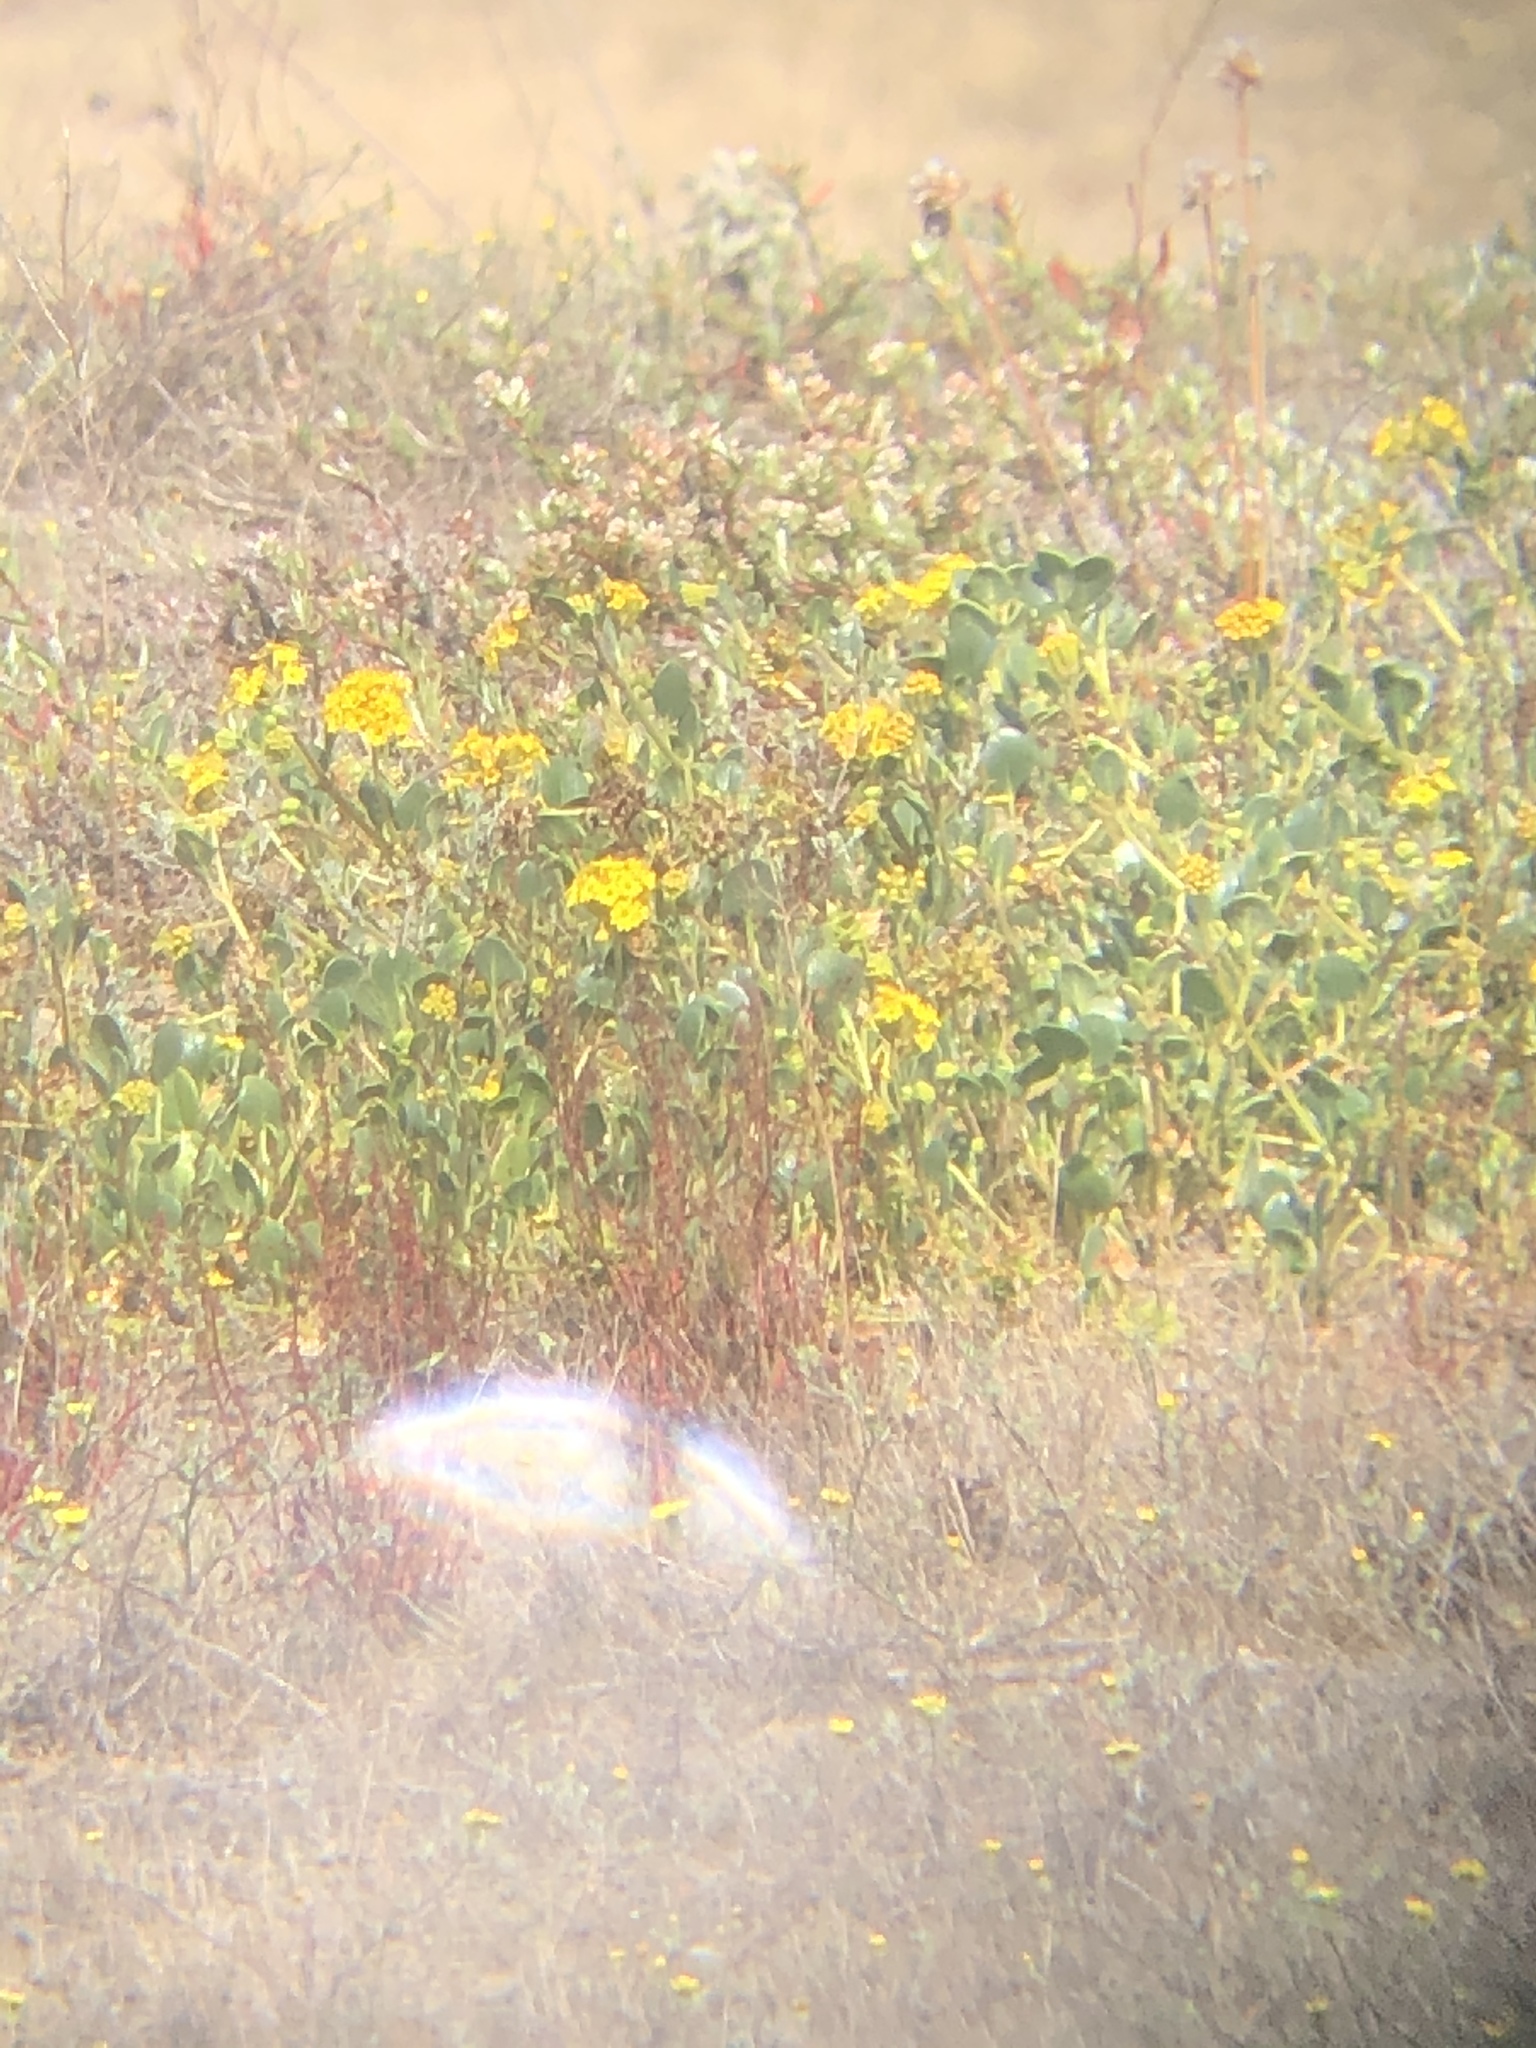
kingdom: Plantae
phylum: Tracheophyta
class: Magnoliopsida
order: Caryophyllales
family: Nyctaginaceae
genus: Abronia
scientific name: Abronia latifolia
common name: Yellow sand-verbena
